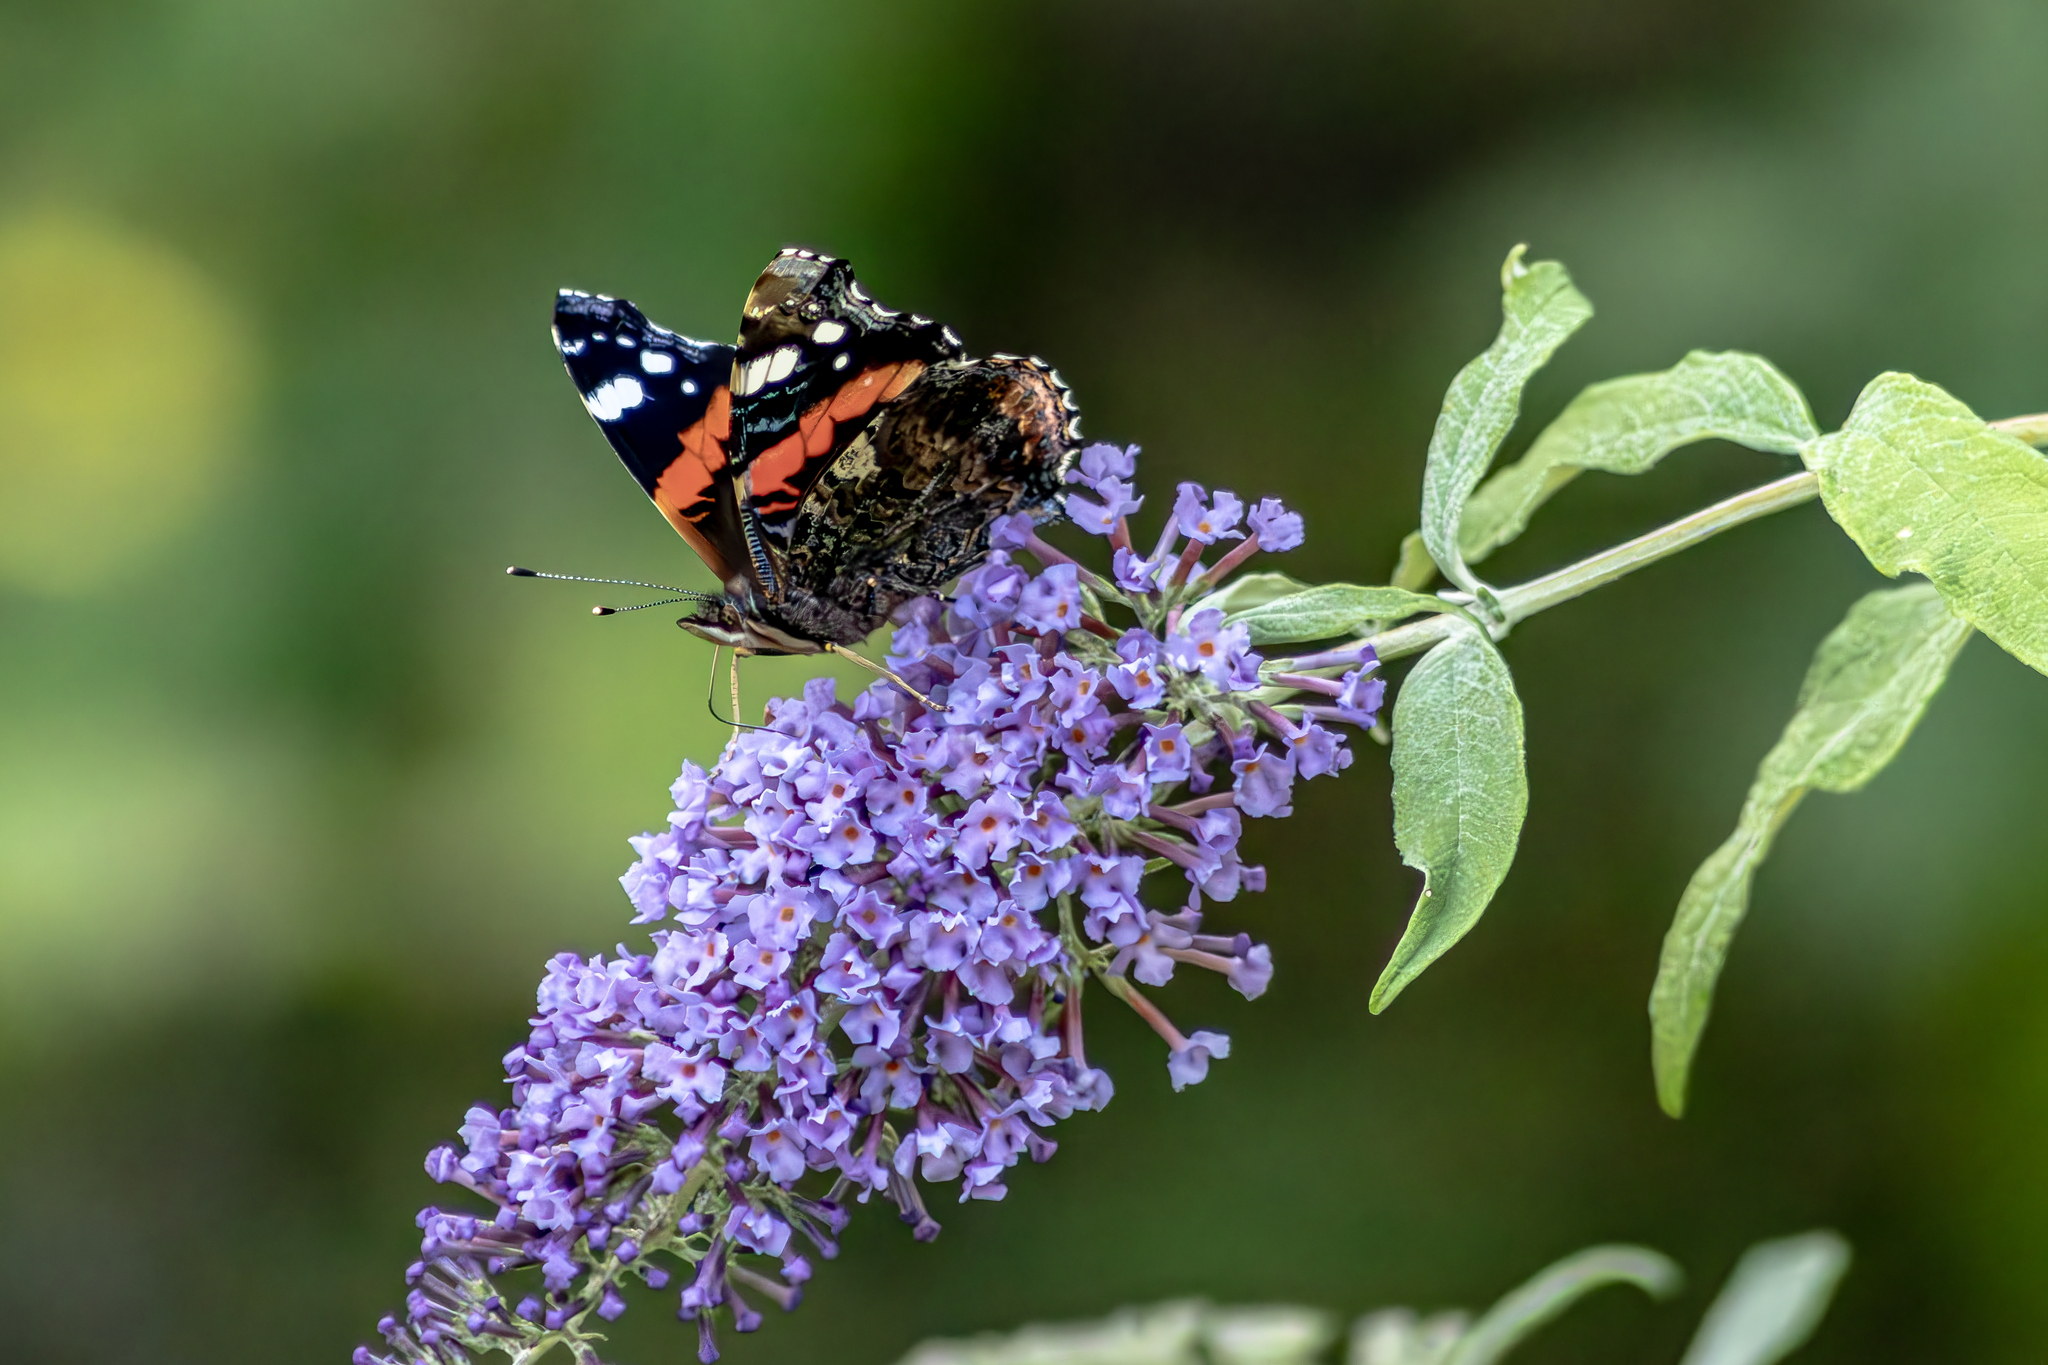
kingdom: Animalia
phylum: Arthropoda
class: Insecta
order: Lepidoptera
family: Nymphalidae
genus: Vanessa
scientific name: Vanessa atalanta
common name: Red admiral
